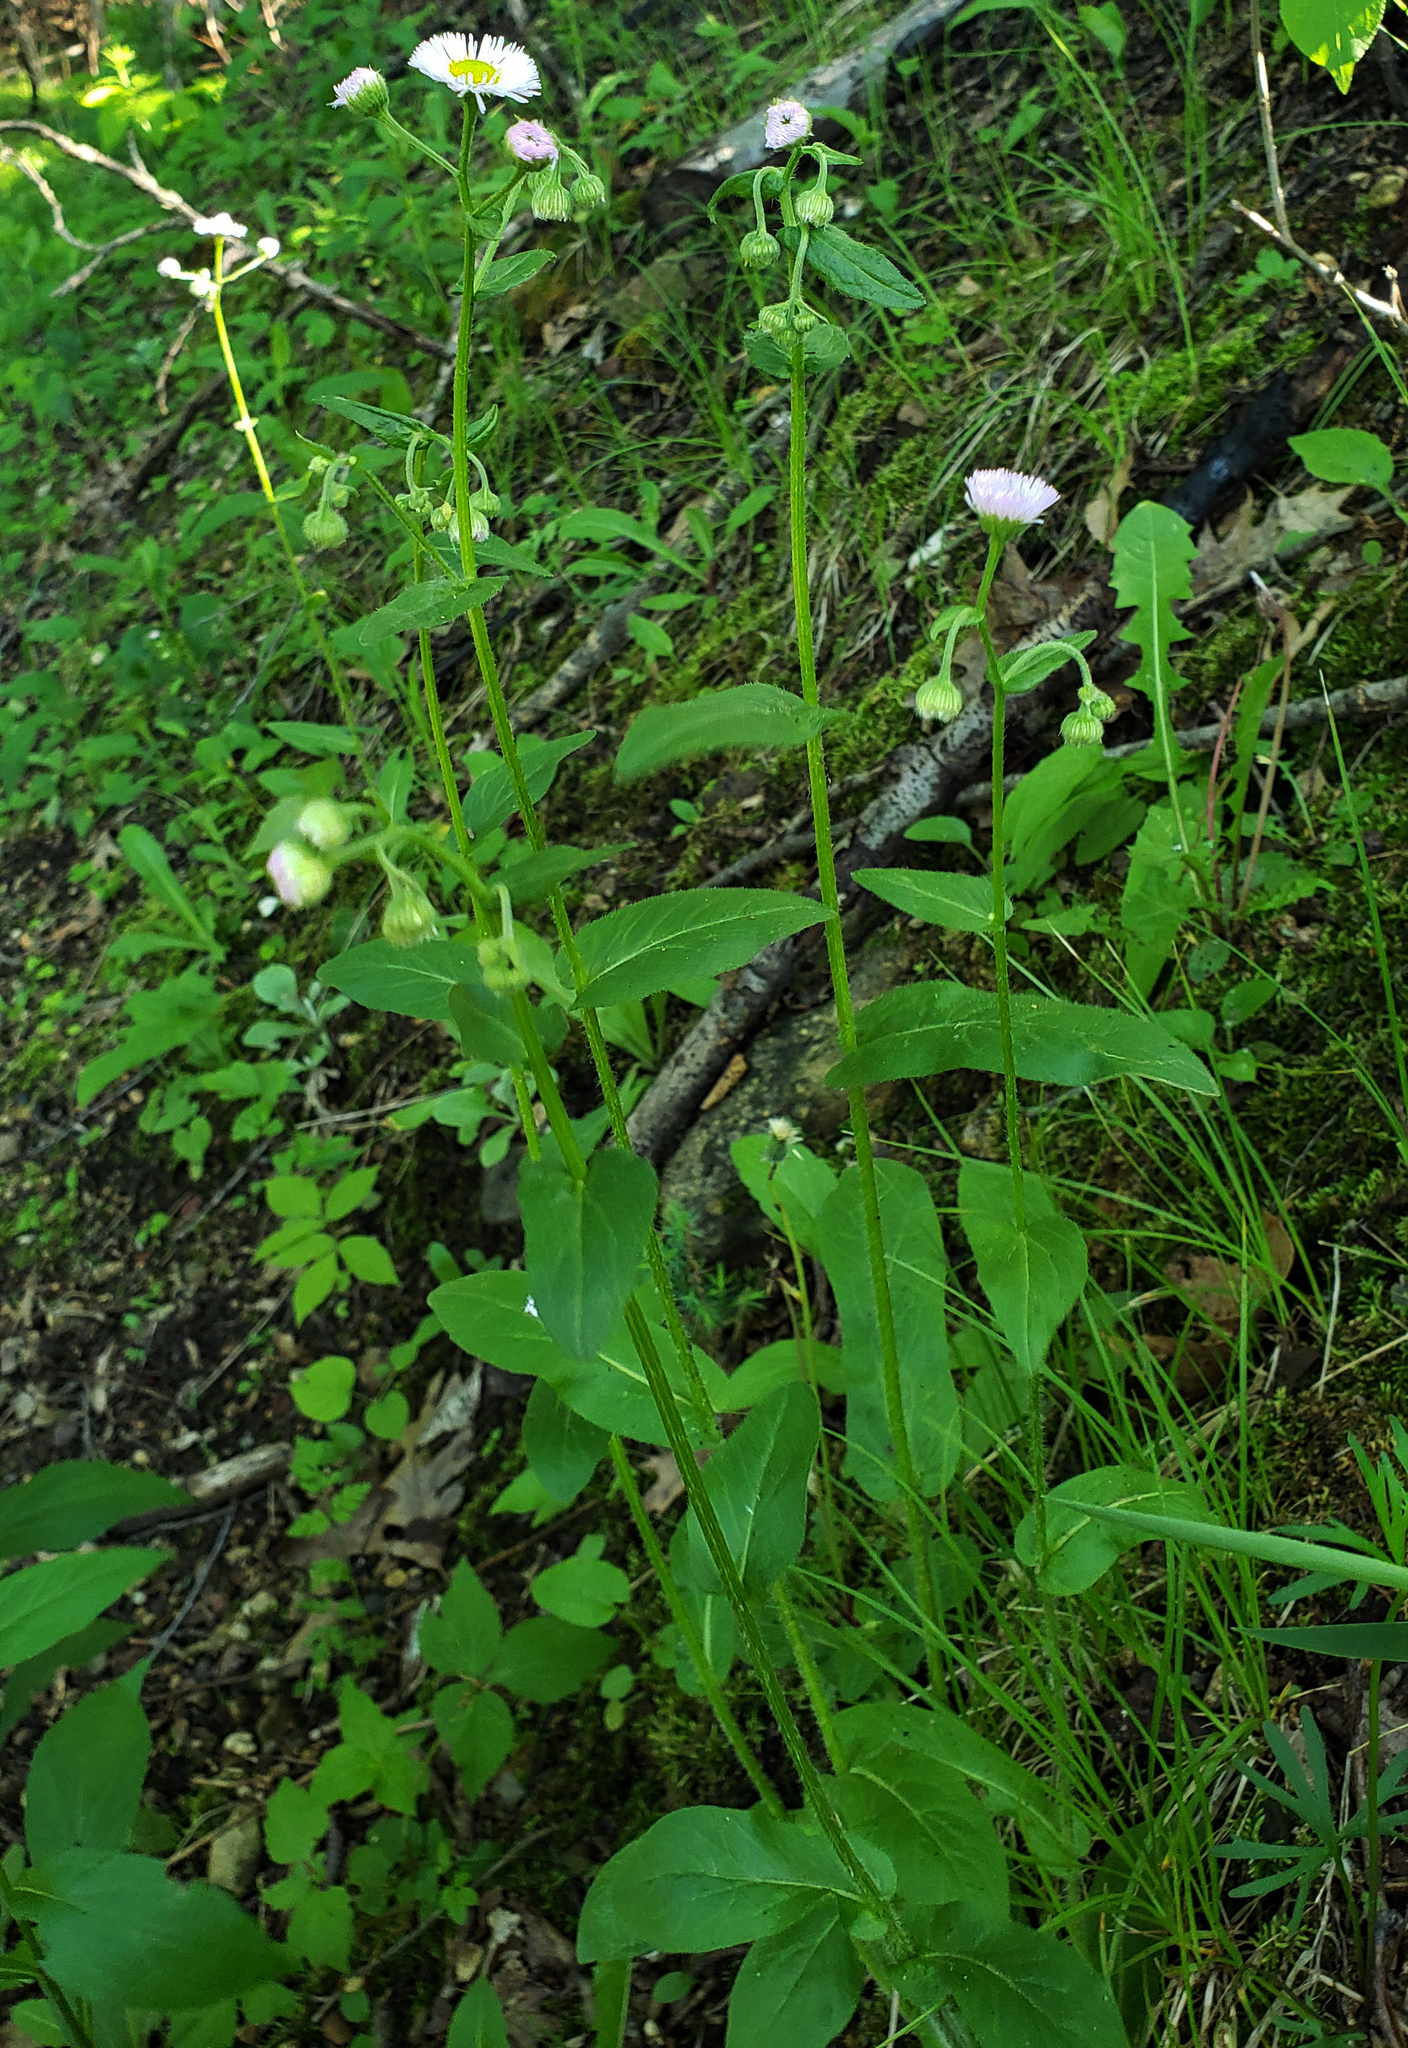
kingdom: Plantae
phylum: Tracheophyta
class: Magnoliopsida
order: Asterales
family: Asteraceae
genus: Erigeron
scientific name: Erigeron philadelphicus
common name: Robin's-plantain
